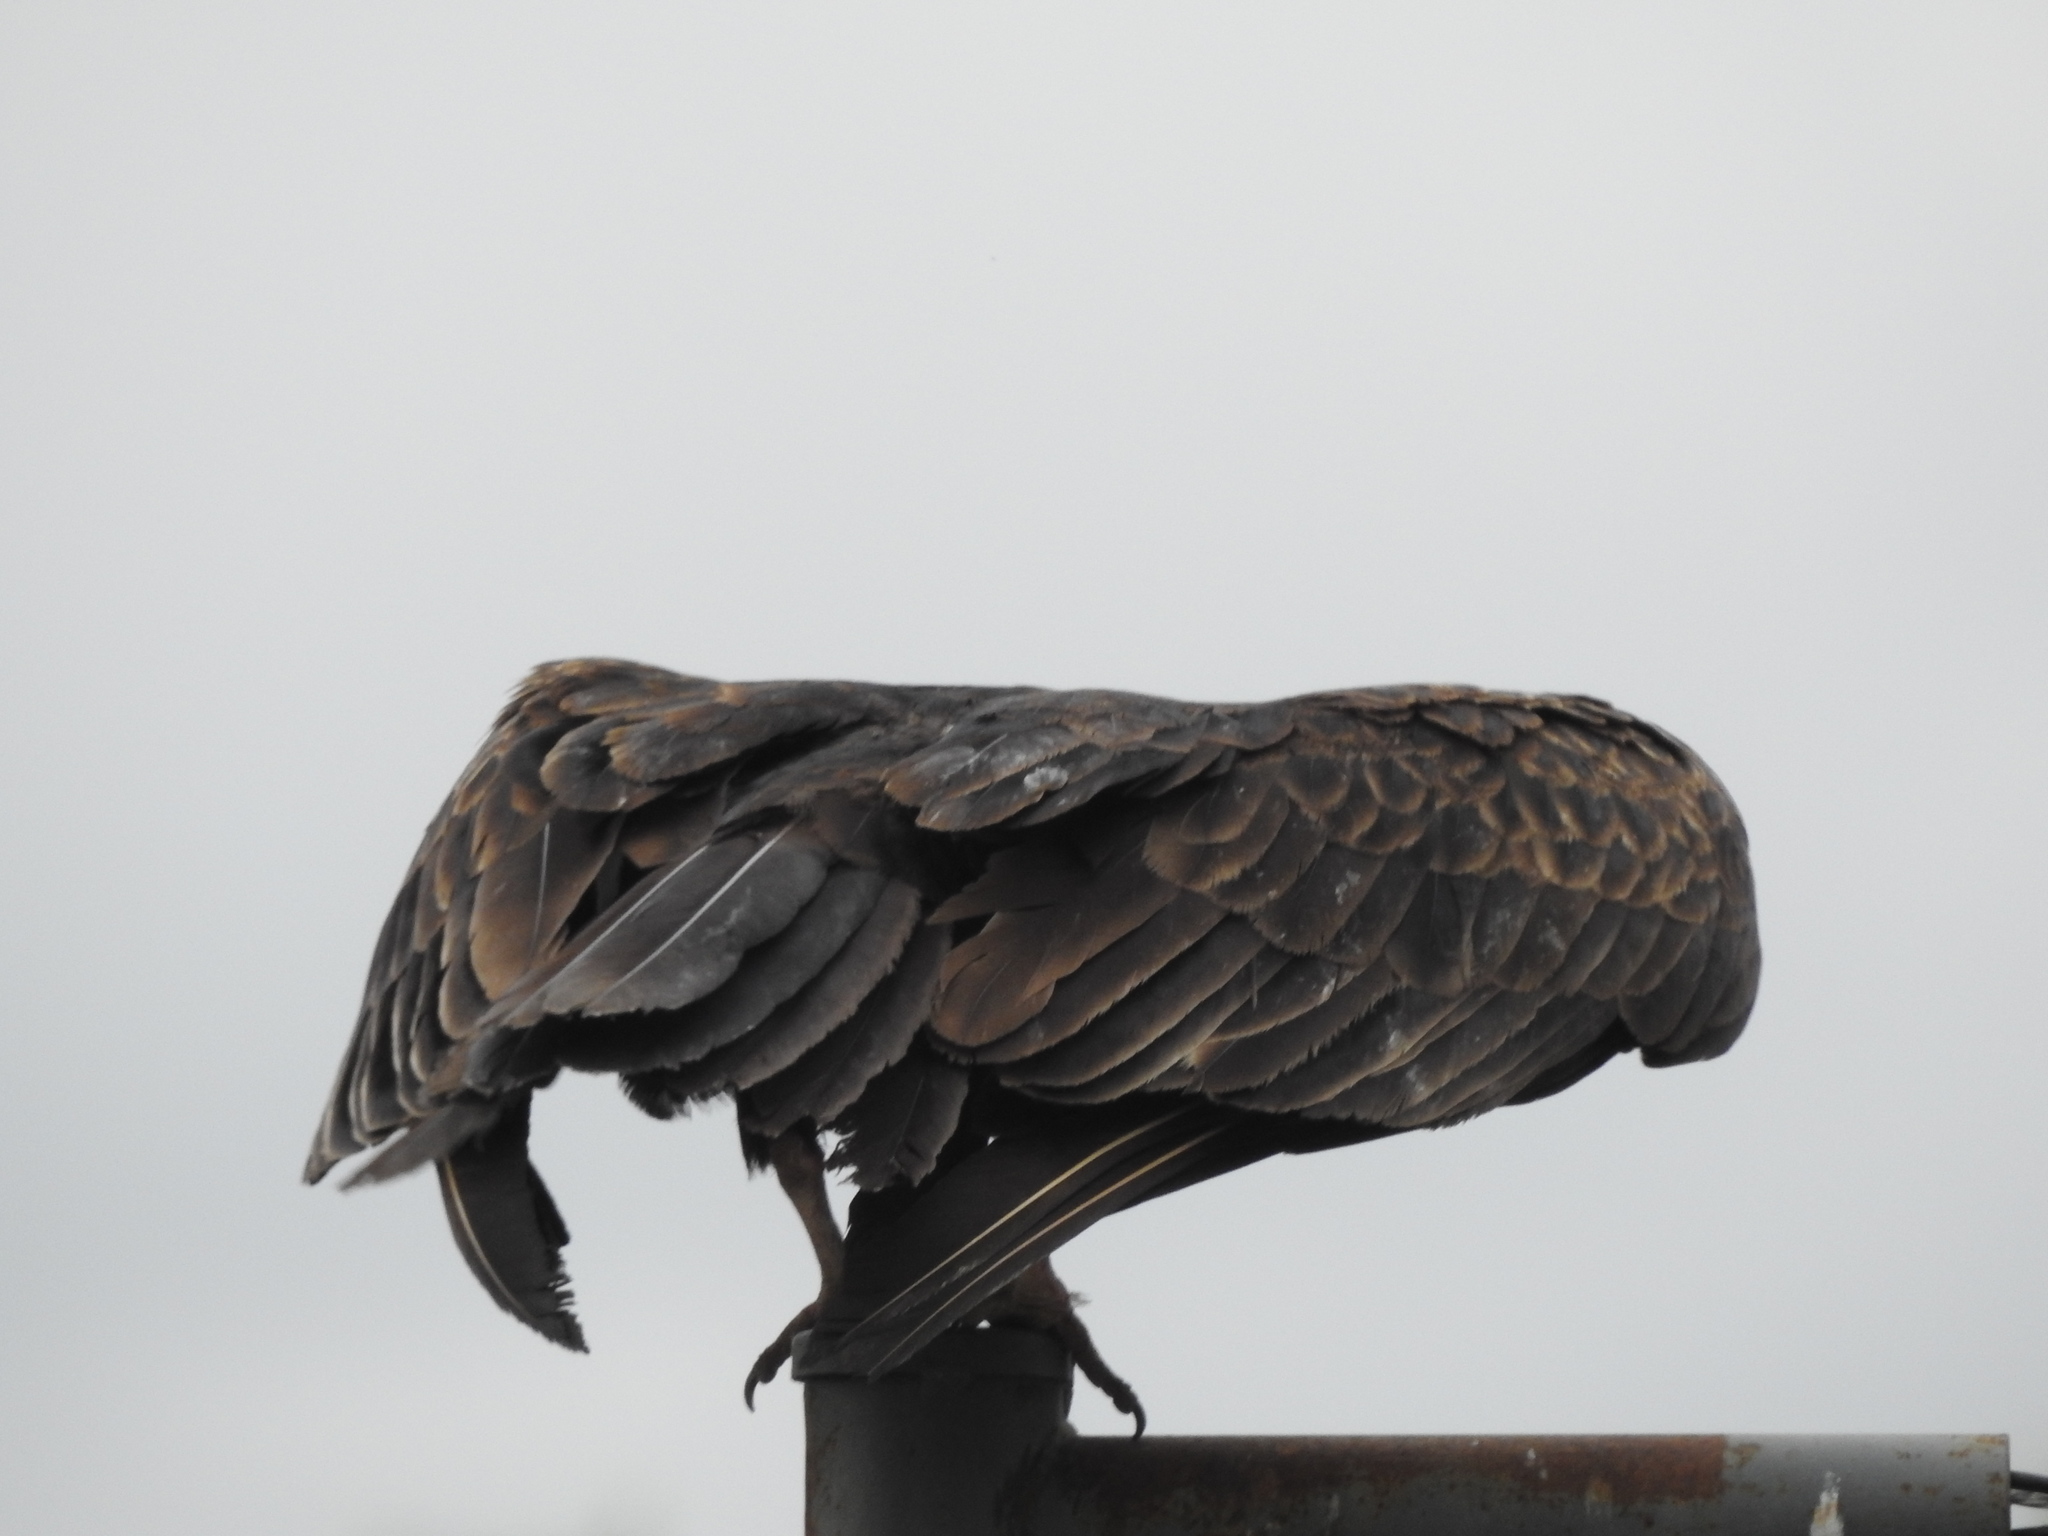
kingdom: Animalia
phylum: Chordata
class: Aves
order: Accipitriformes
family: Cathartidae
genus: Cathartes
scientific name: Cathartes aura
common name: Turkey vulture
